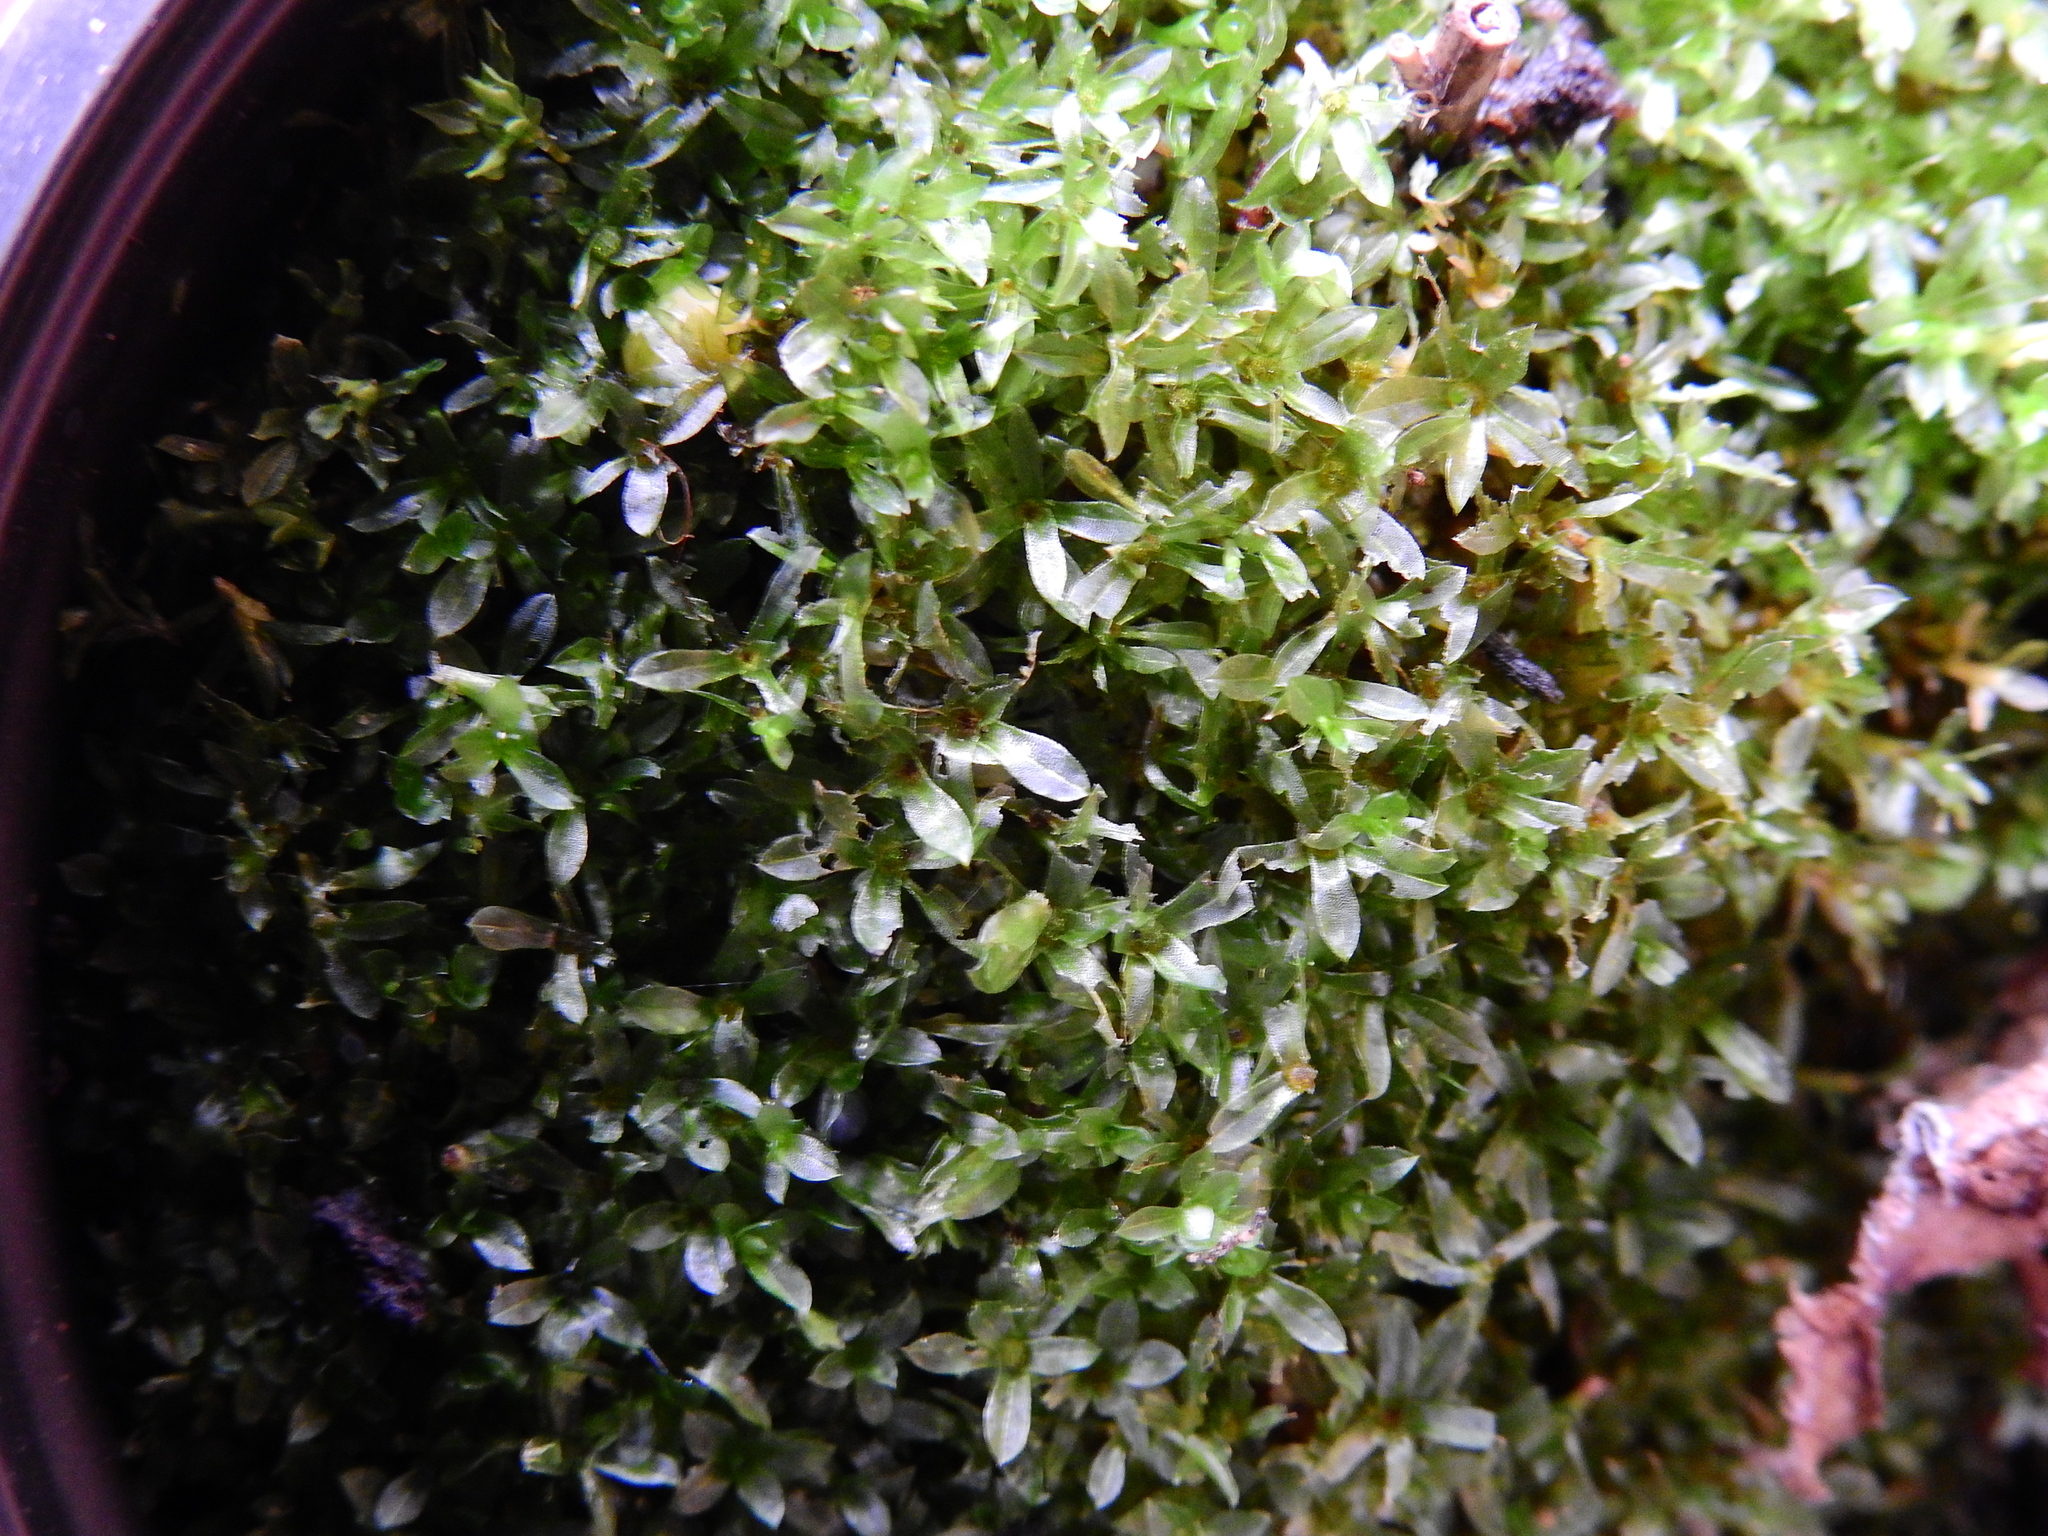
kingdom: Plantae
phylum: Bryophyta
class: Bryopsida
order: Funariales
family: Funariaceae
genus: Funaria
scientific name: Funaria hygrometrica
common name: Common cord moss
